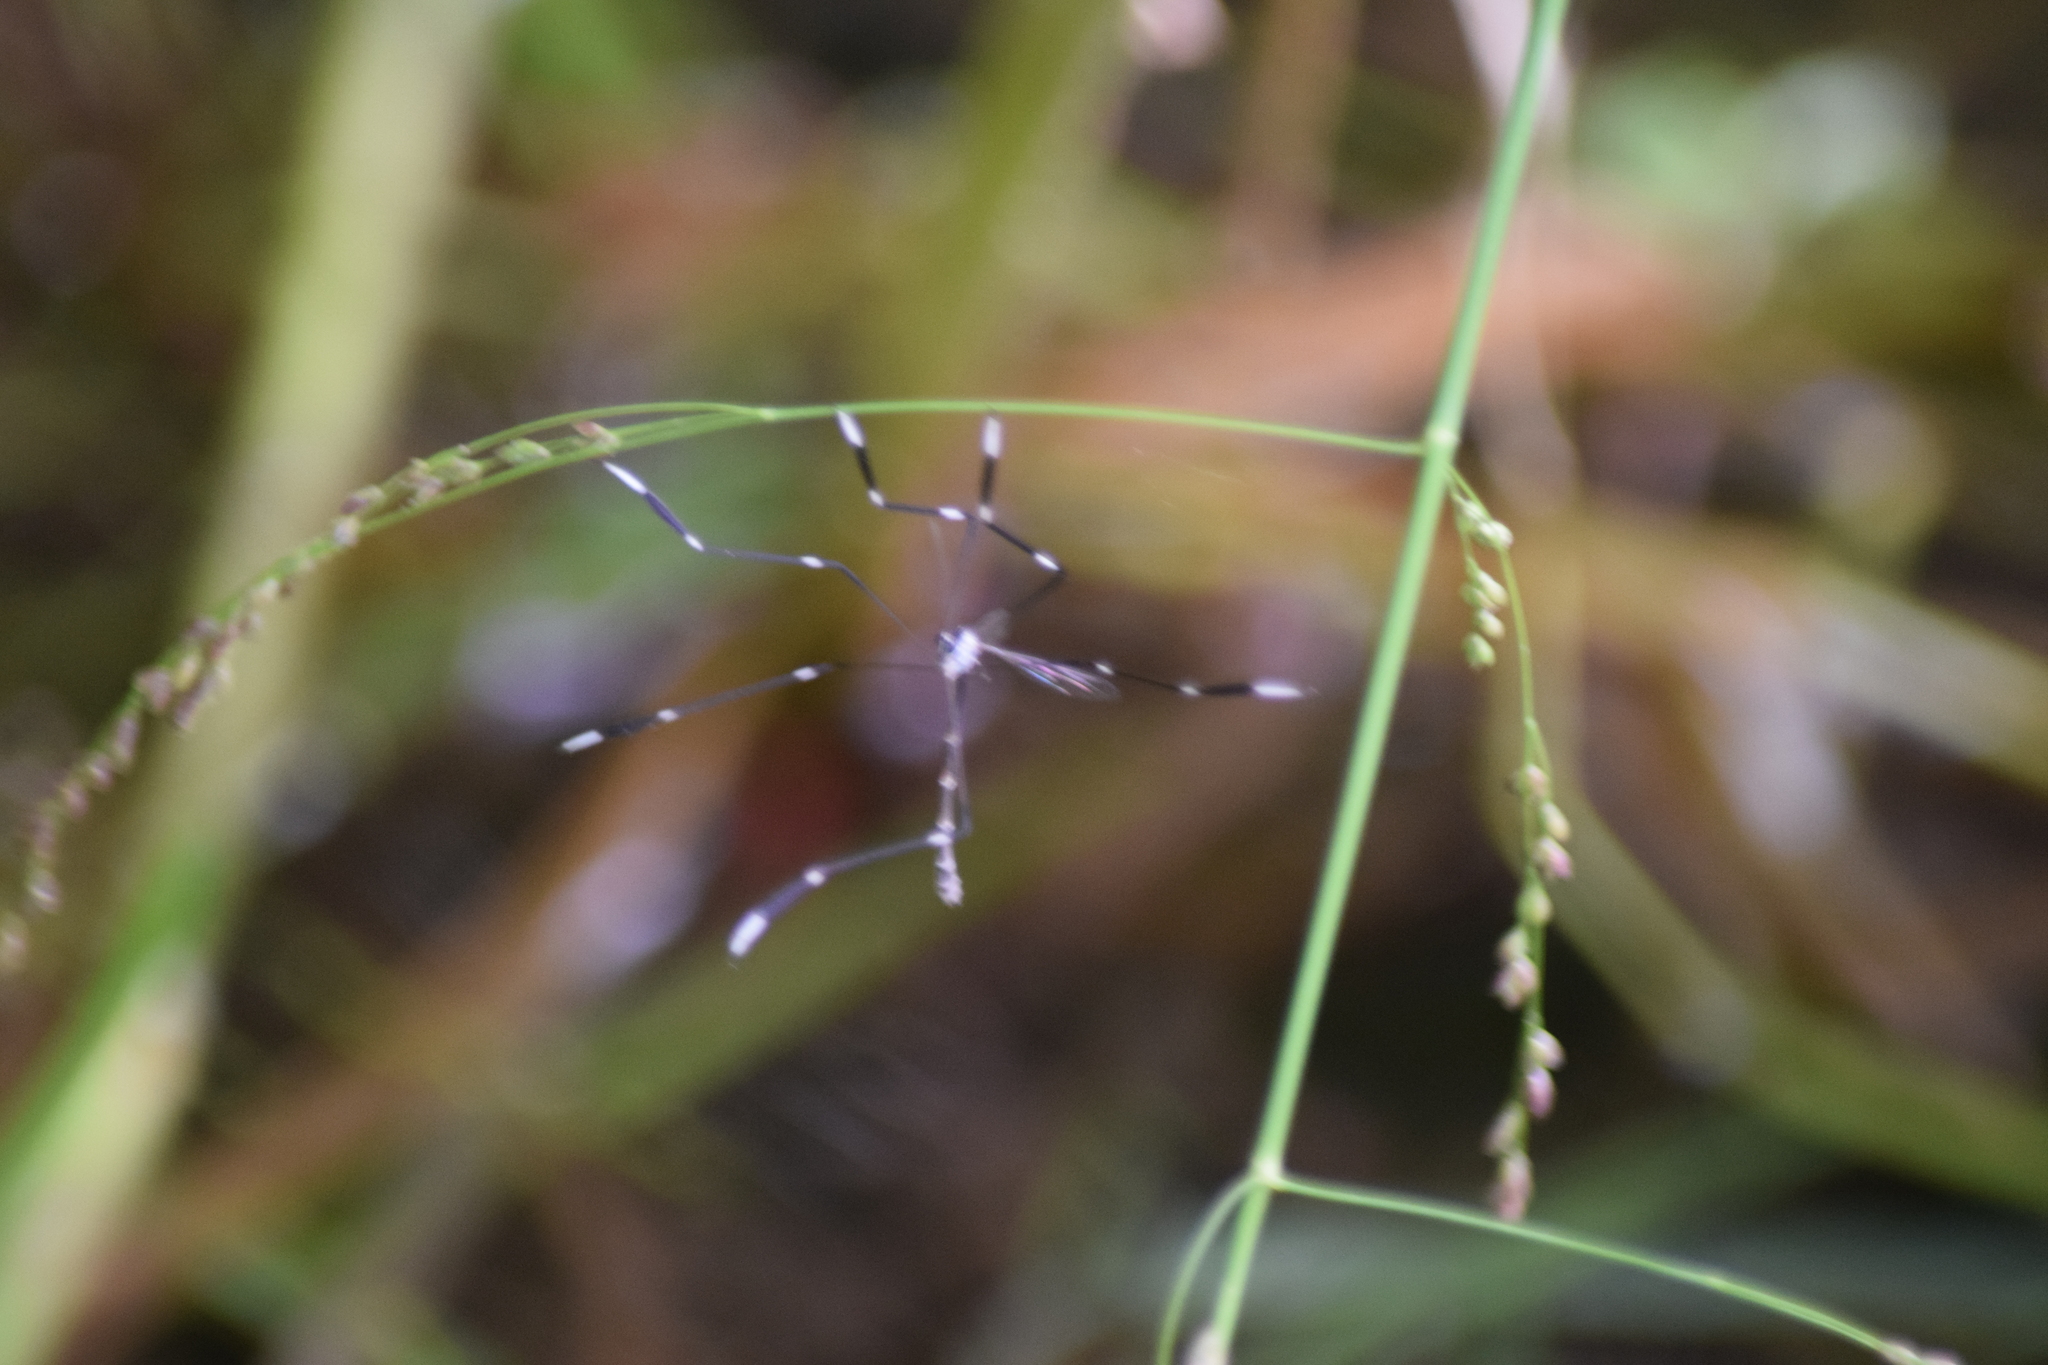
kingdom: Animalia
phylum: Arthropoda
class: Insecta
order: Diptera
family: Ptychopteridae
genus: Bittacomorpha
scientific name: Bittacomorpha clavipes
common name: Eastern phantom crane fly
